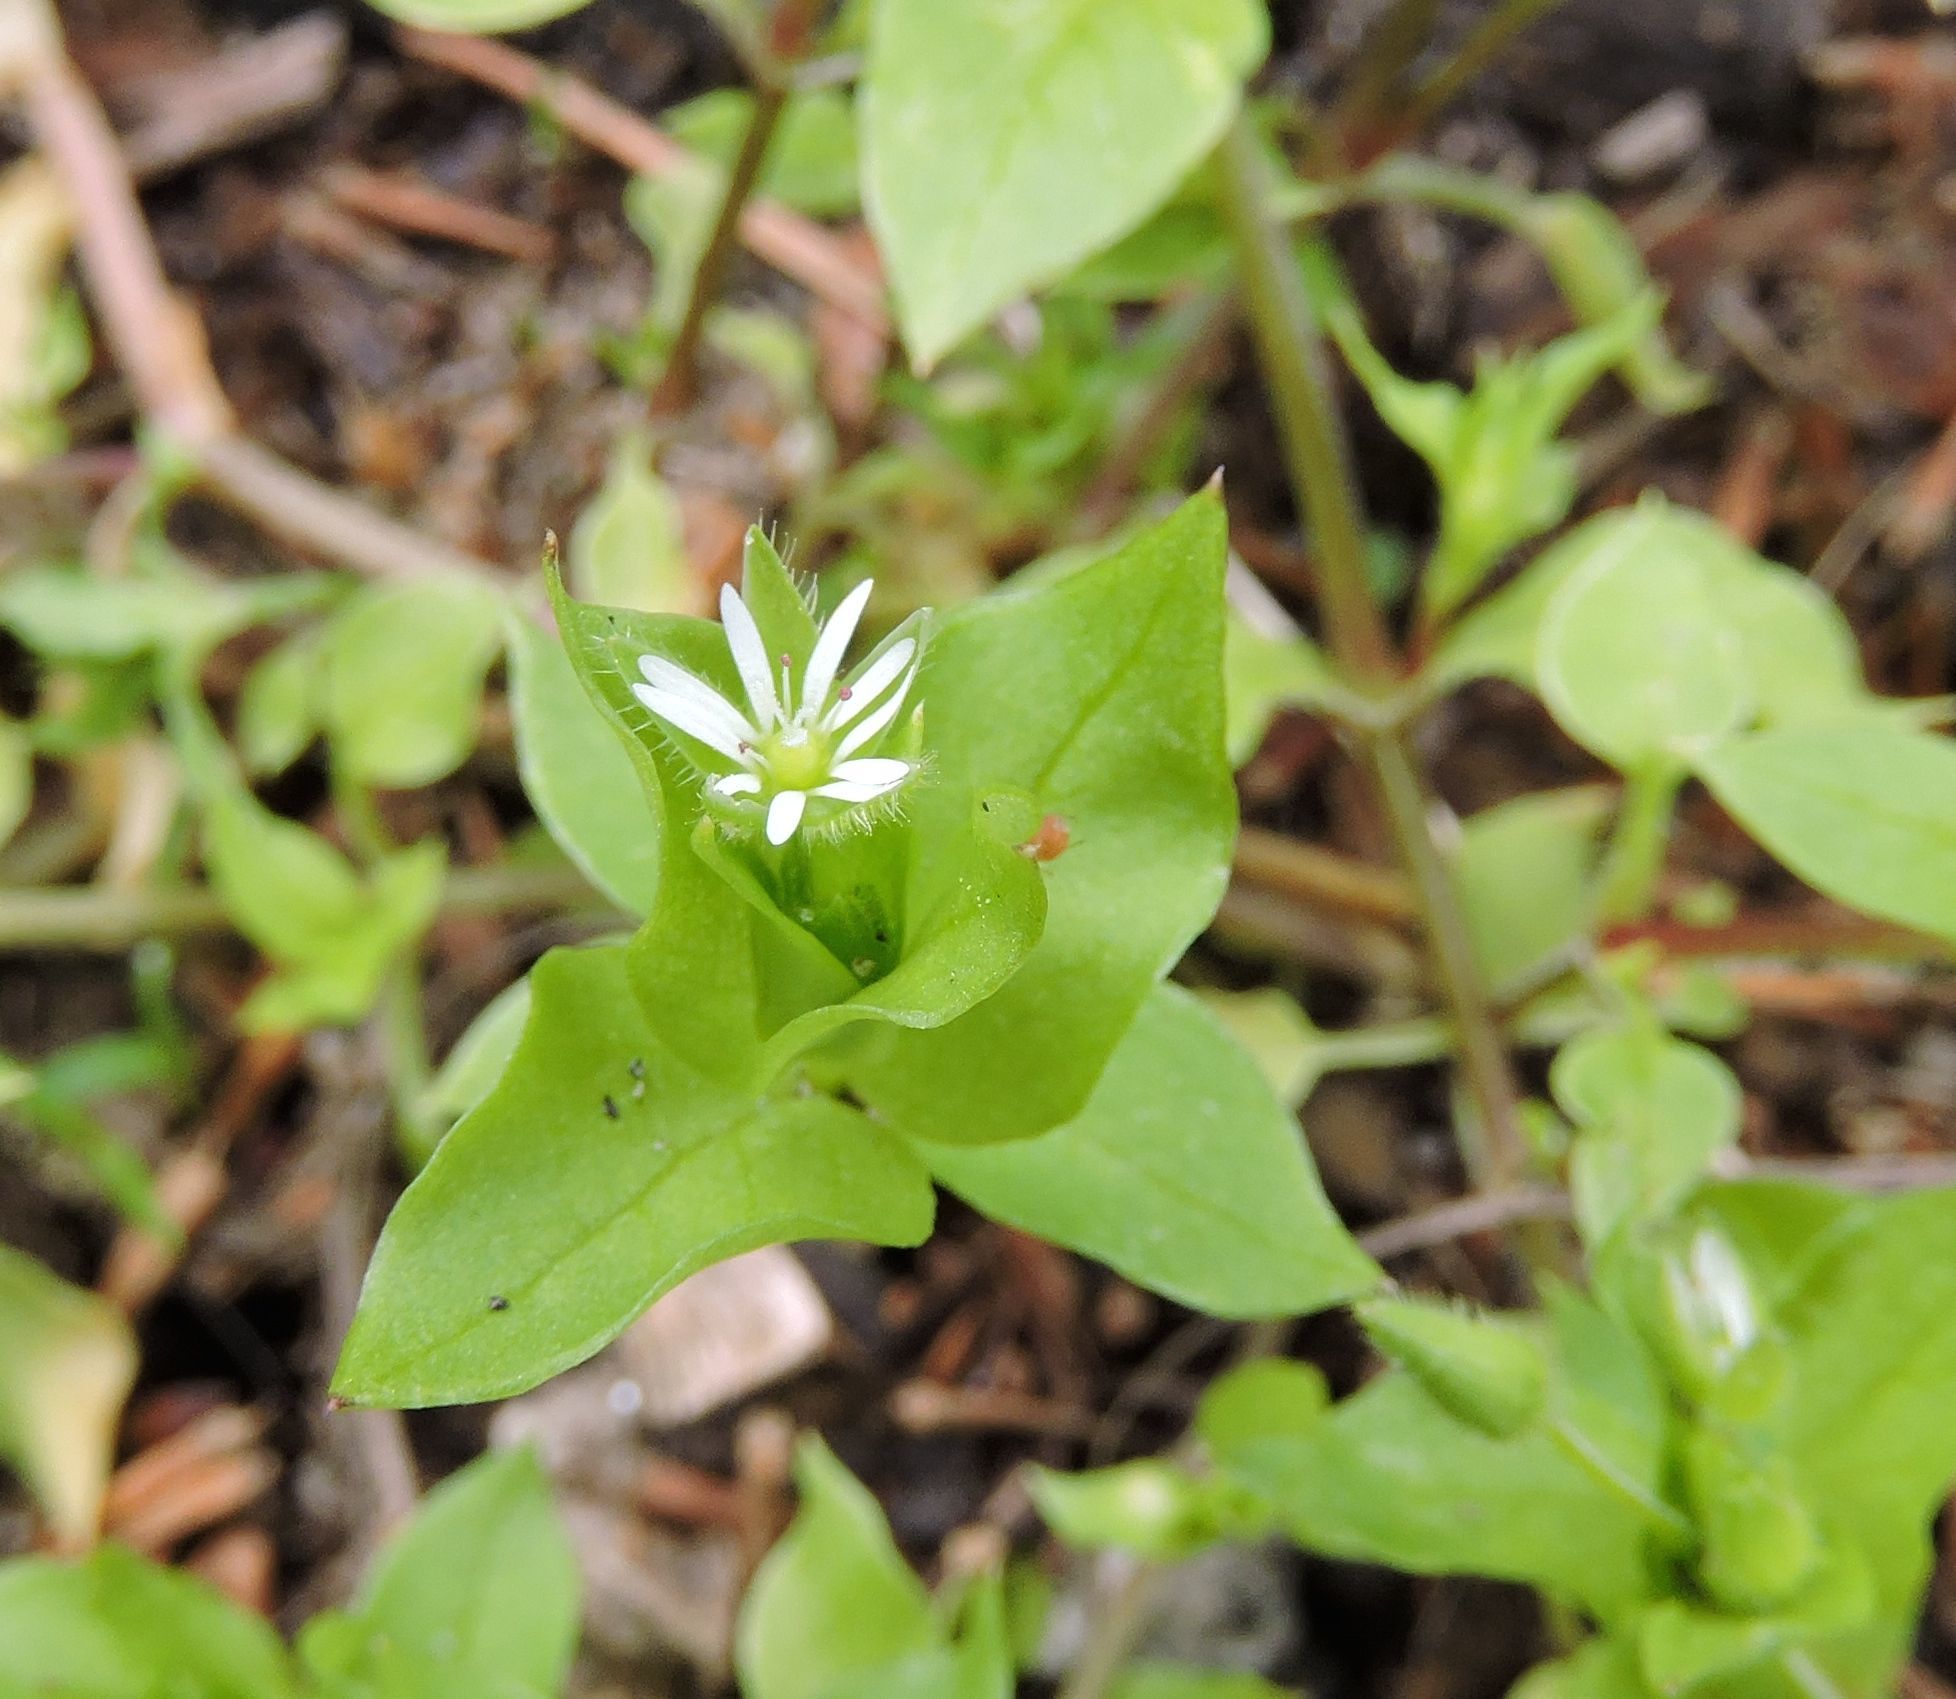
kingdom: Plantae
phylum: Tracheophyta
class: Magnoliopsida
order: Caryophyllales
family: Caryophyllaceae
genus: Stellaria
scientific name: Stellaria media
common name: Common chickweed
